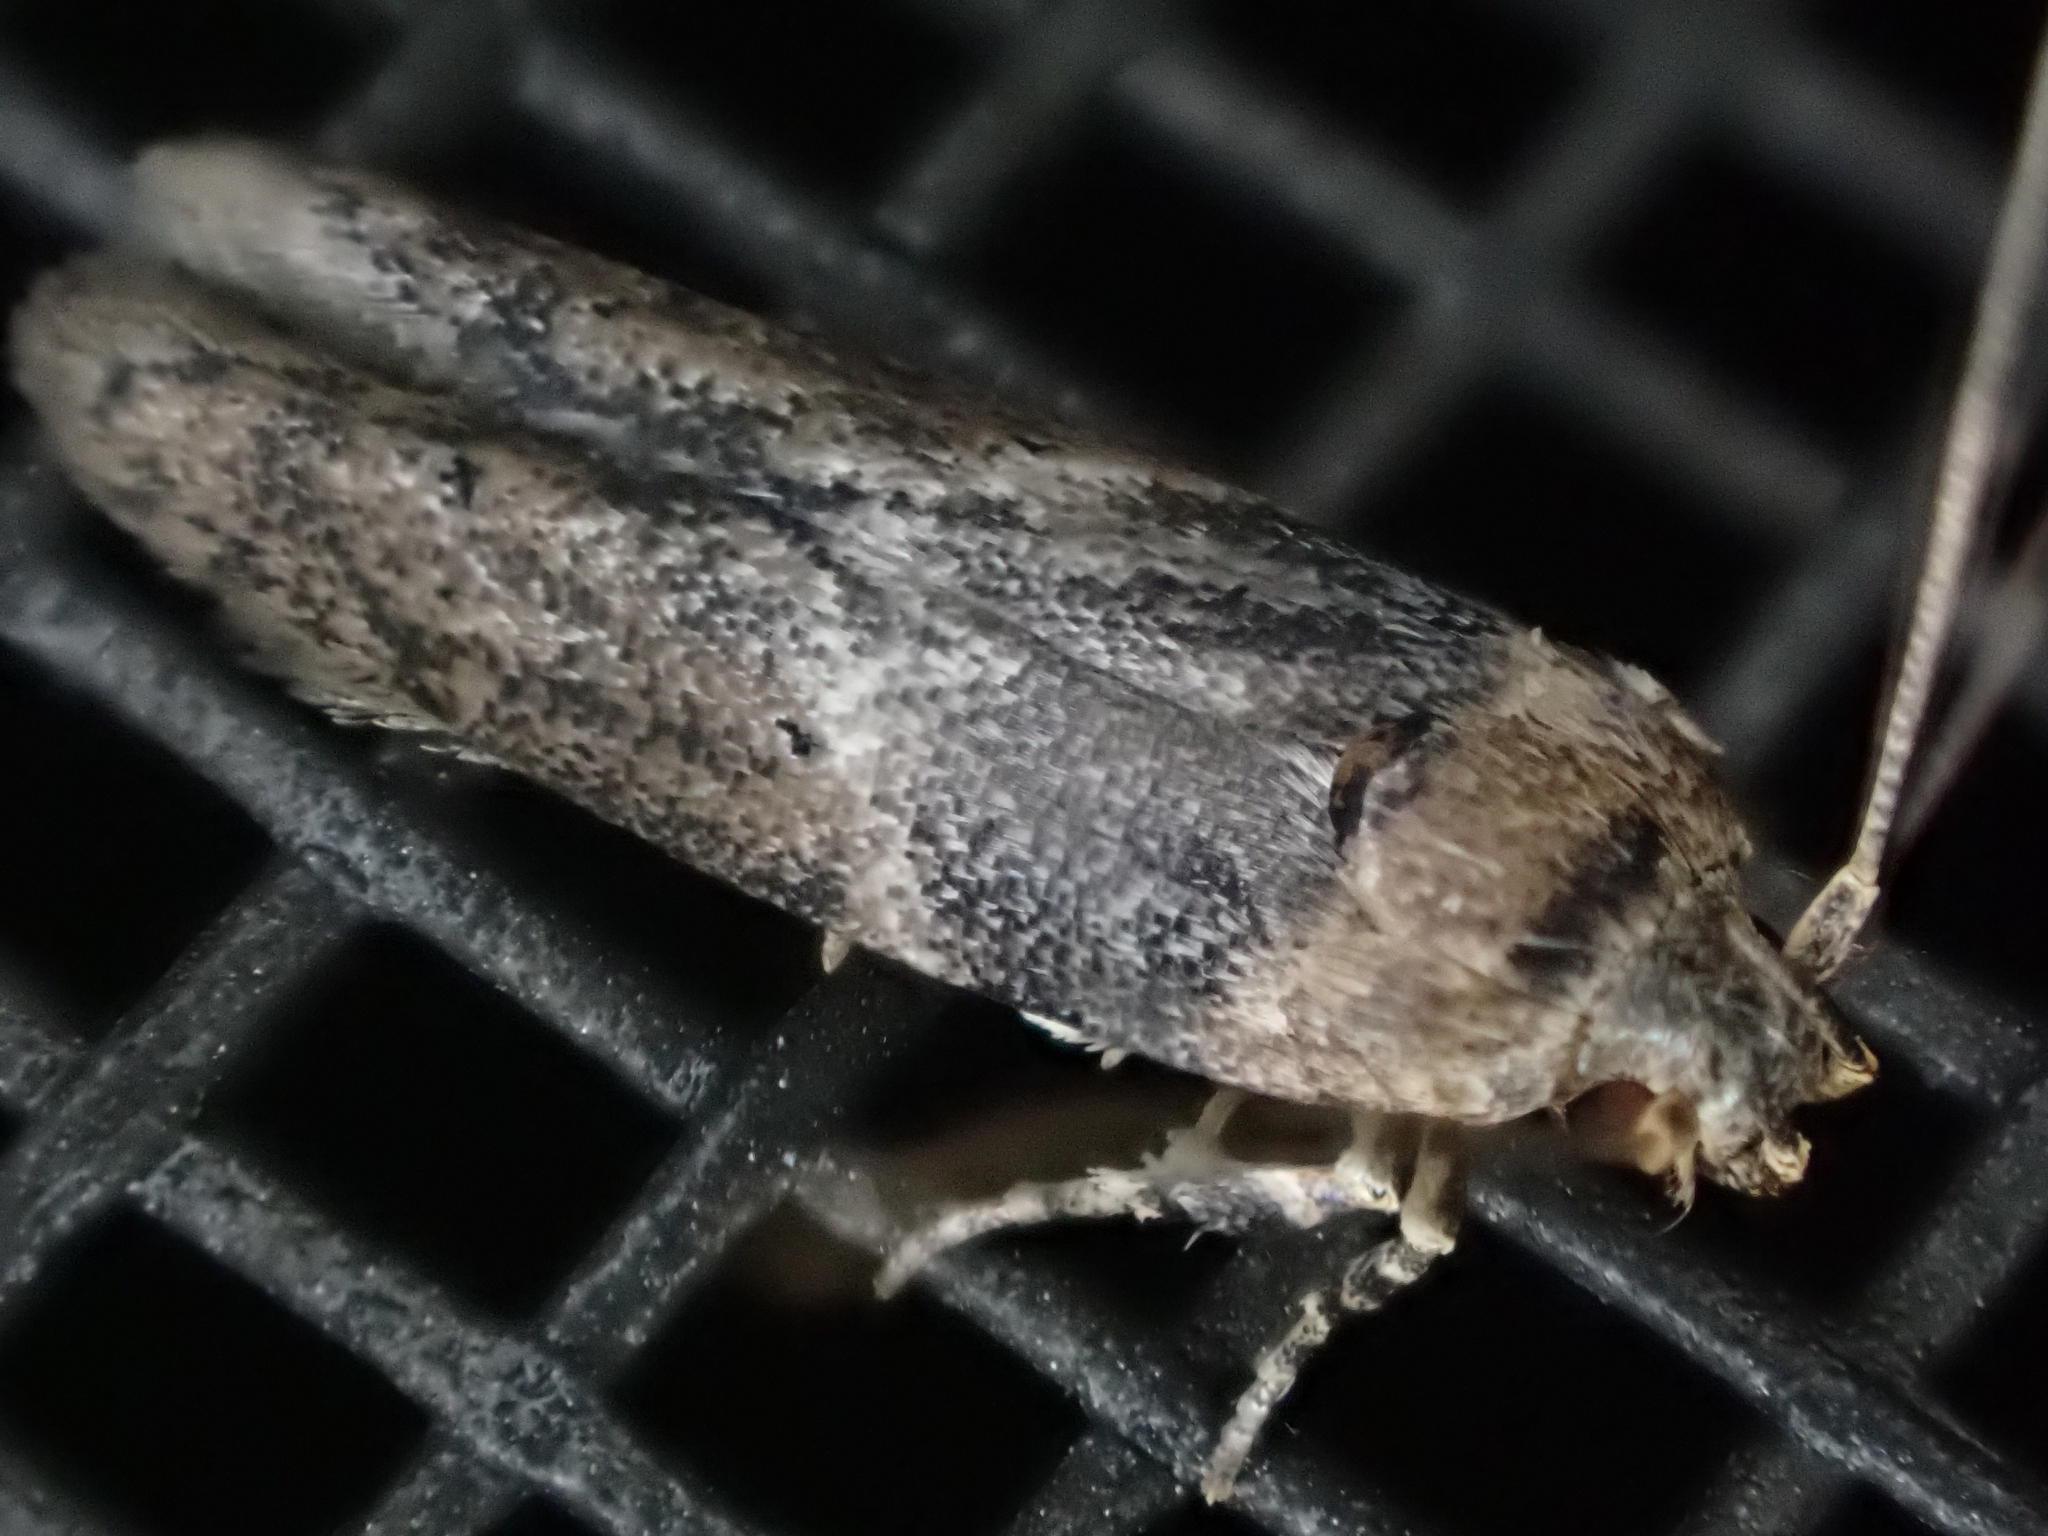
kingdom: Animalia
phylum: Arthropoda
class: Insecta
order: Lepidoptera
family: Blastobasidae
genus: Holcocera
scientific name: Holcocera crassicornella
